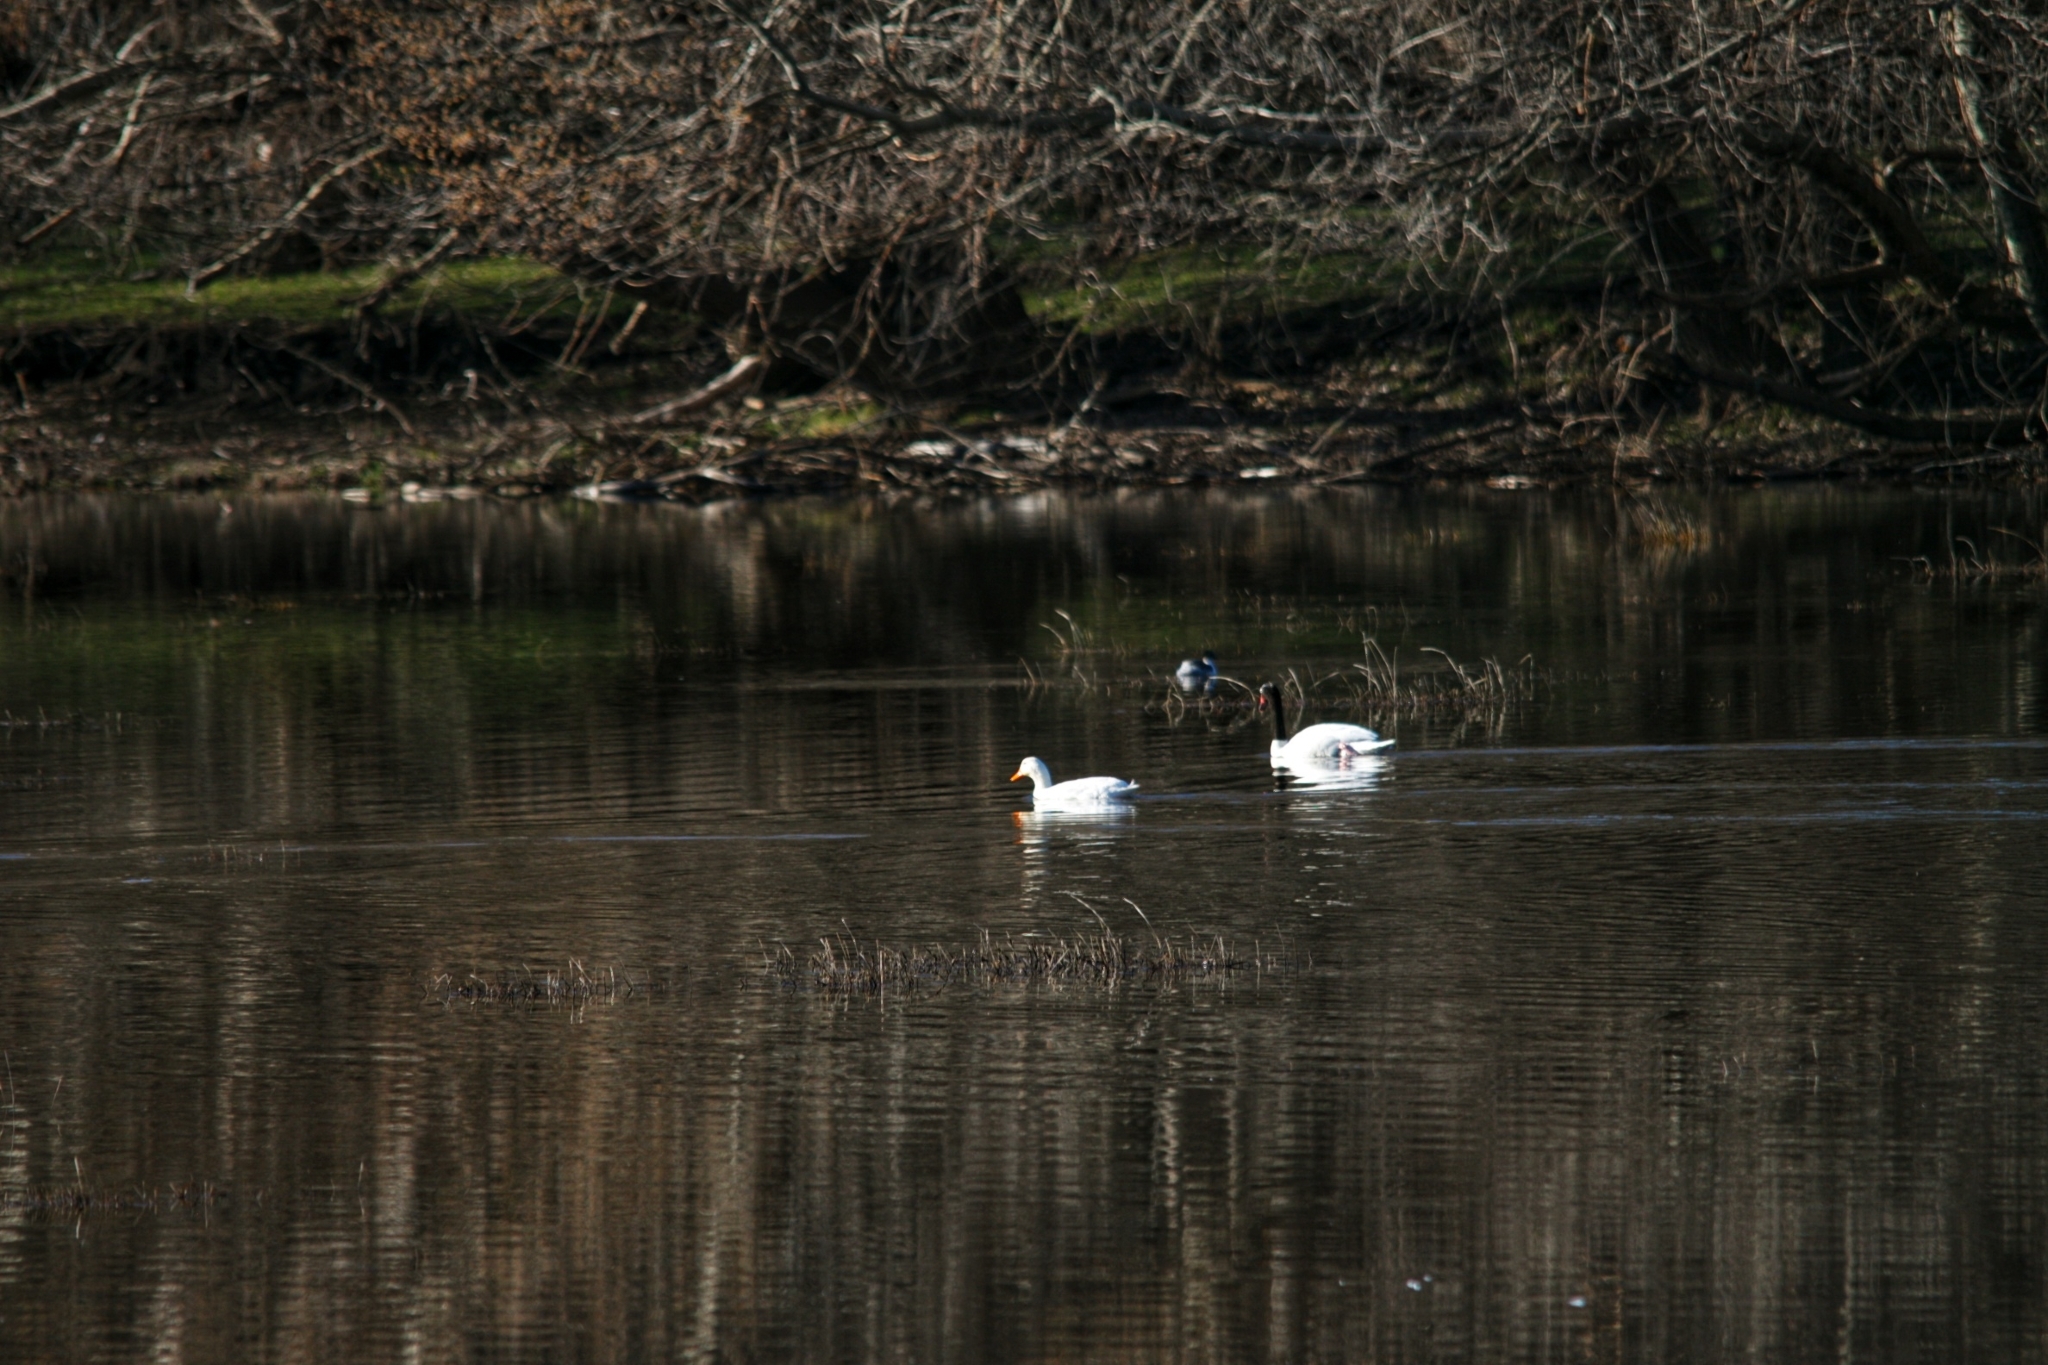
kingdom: Animalia
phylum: Chordata
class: Aves
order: Anseriformes
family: Anatidae
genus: Cygnus
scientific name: Cygnus melancoryphus
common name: Black-necked swan
